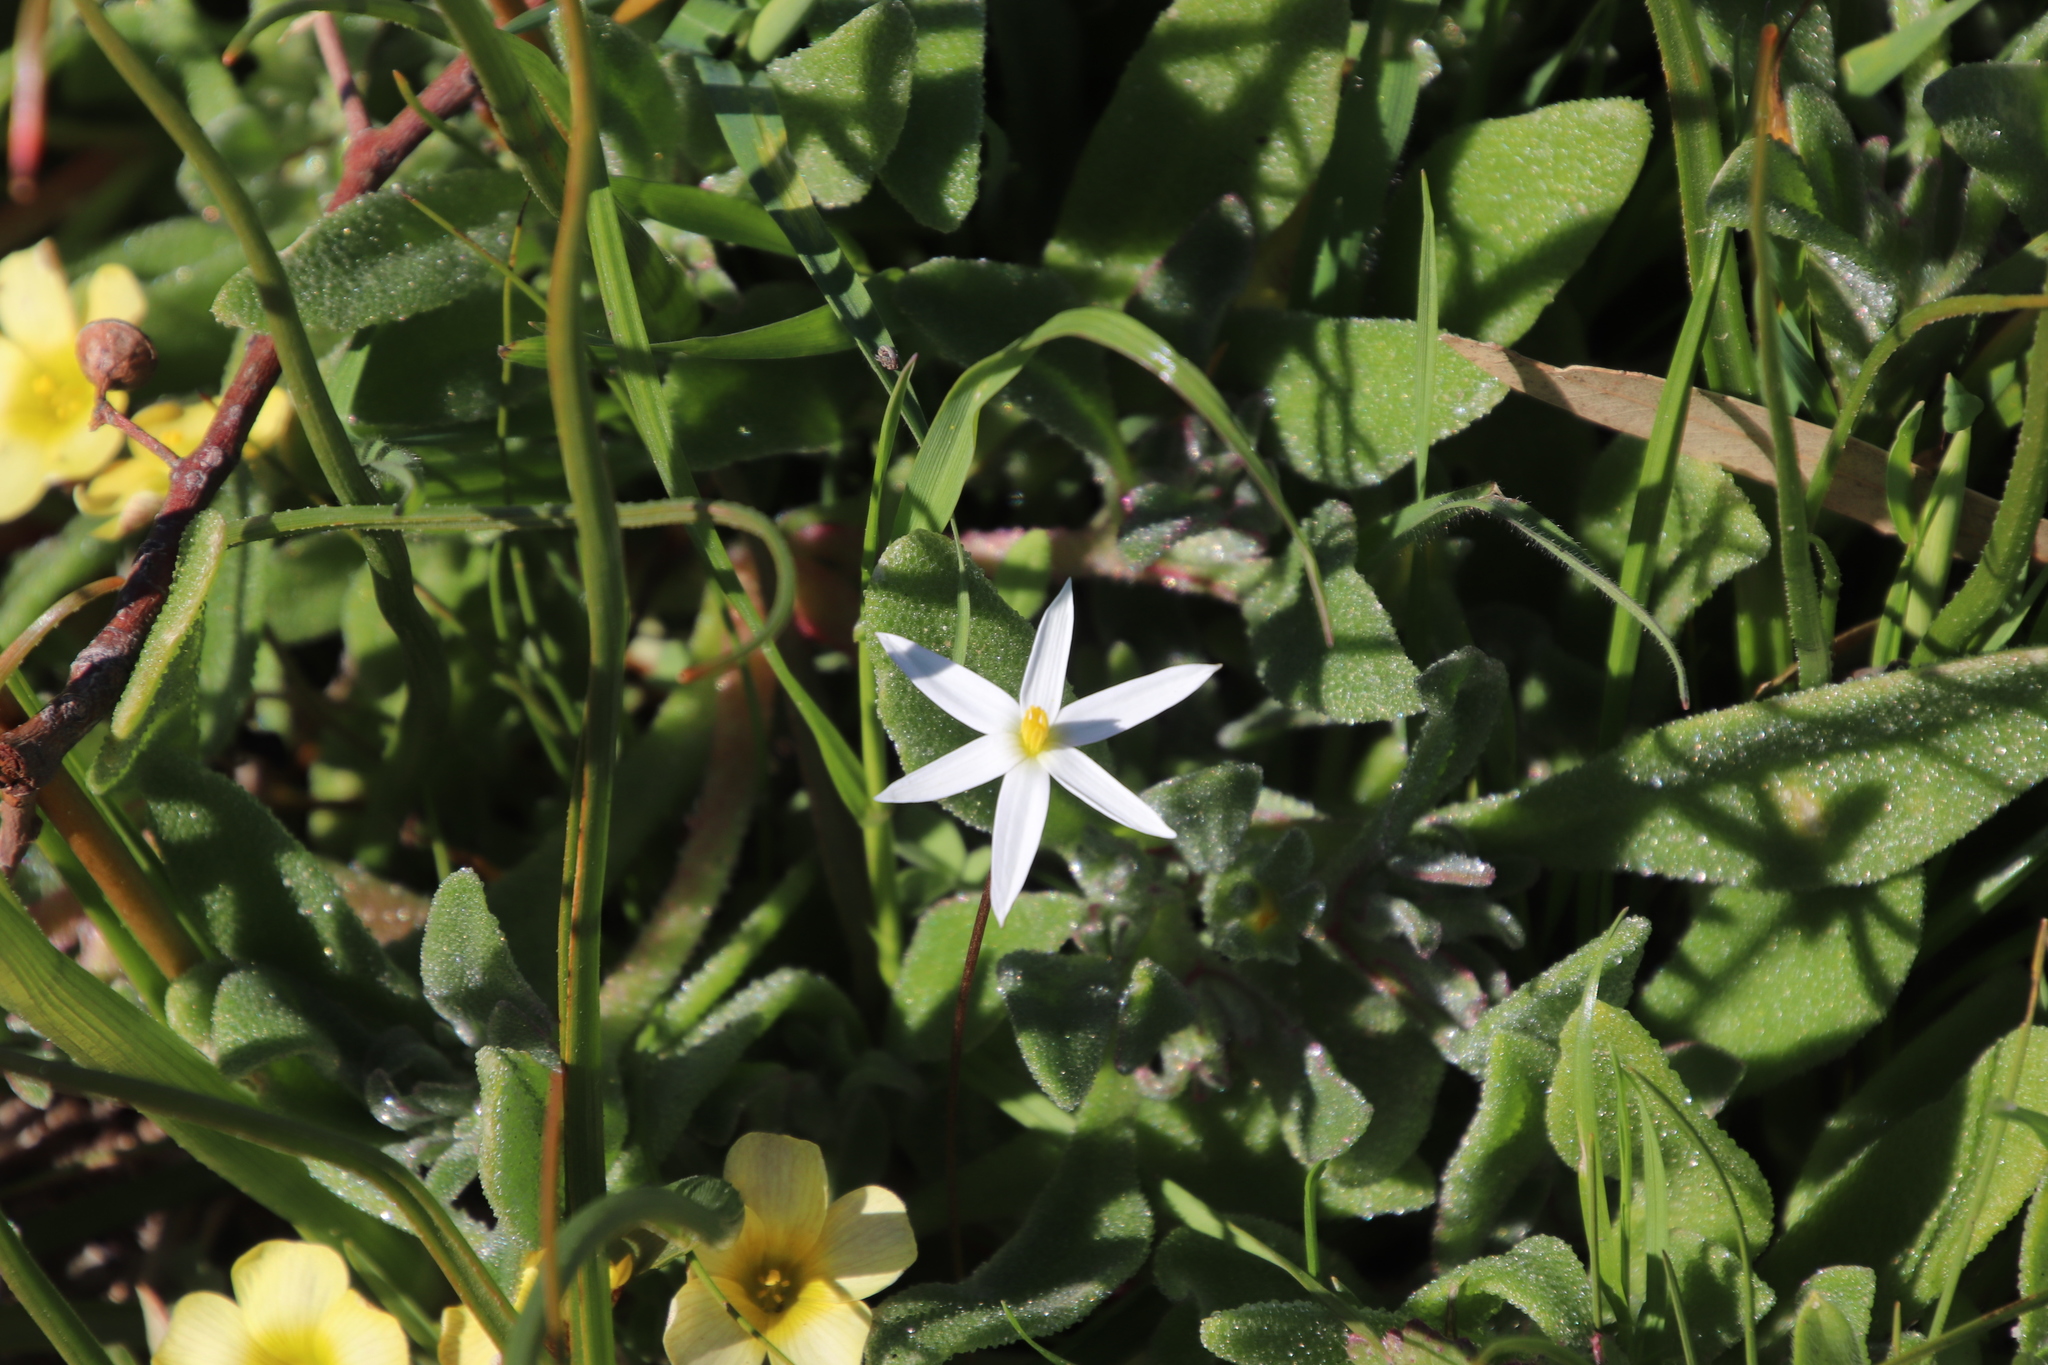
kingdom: Plantae
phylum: Tracheophyta
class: Liliopsida
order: Asparagales
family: Hypoxidaceae
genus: Pauridia
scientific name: Pauridia serrata
